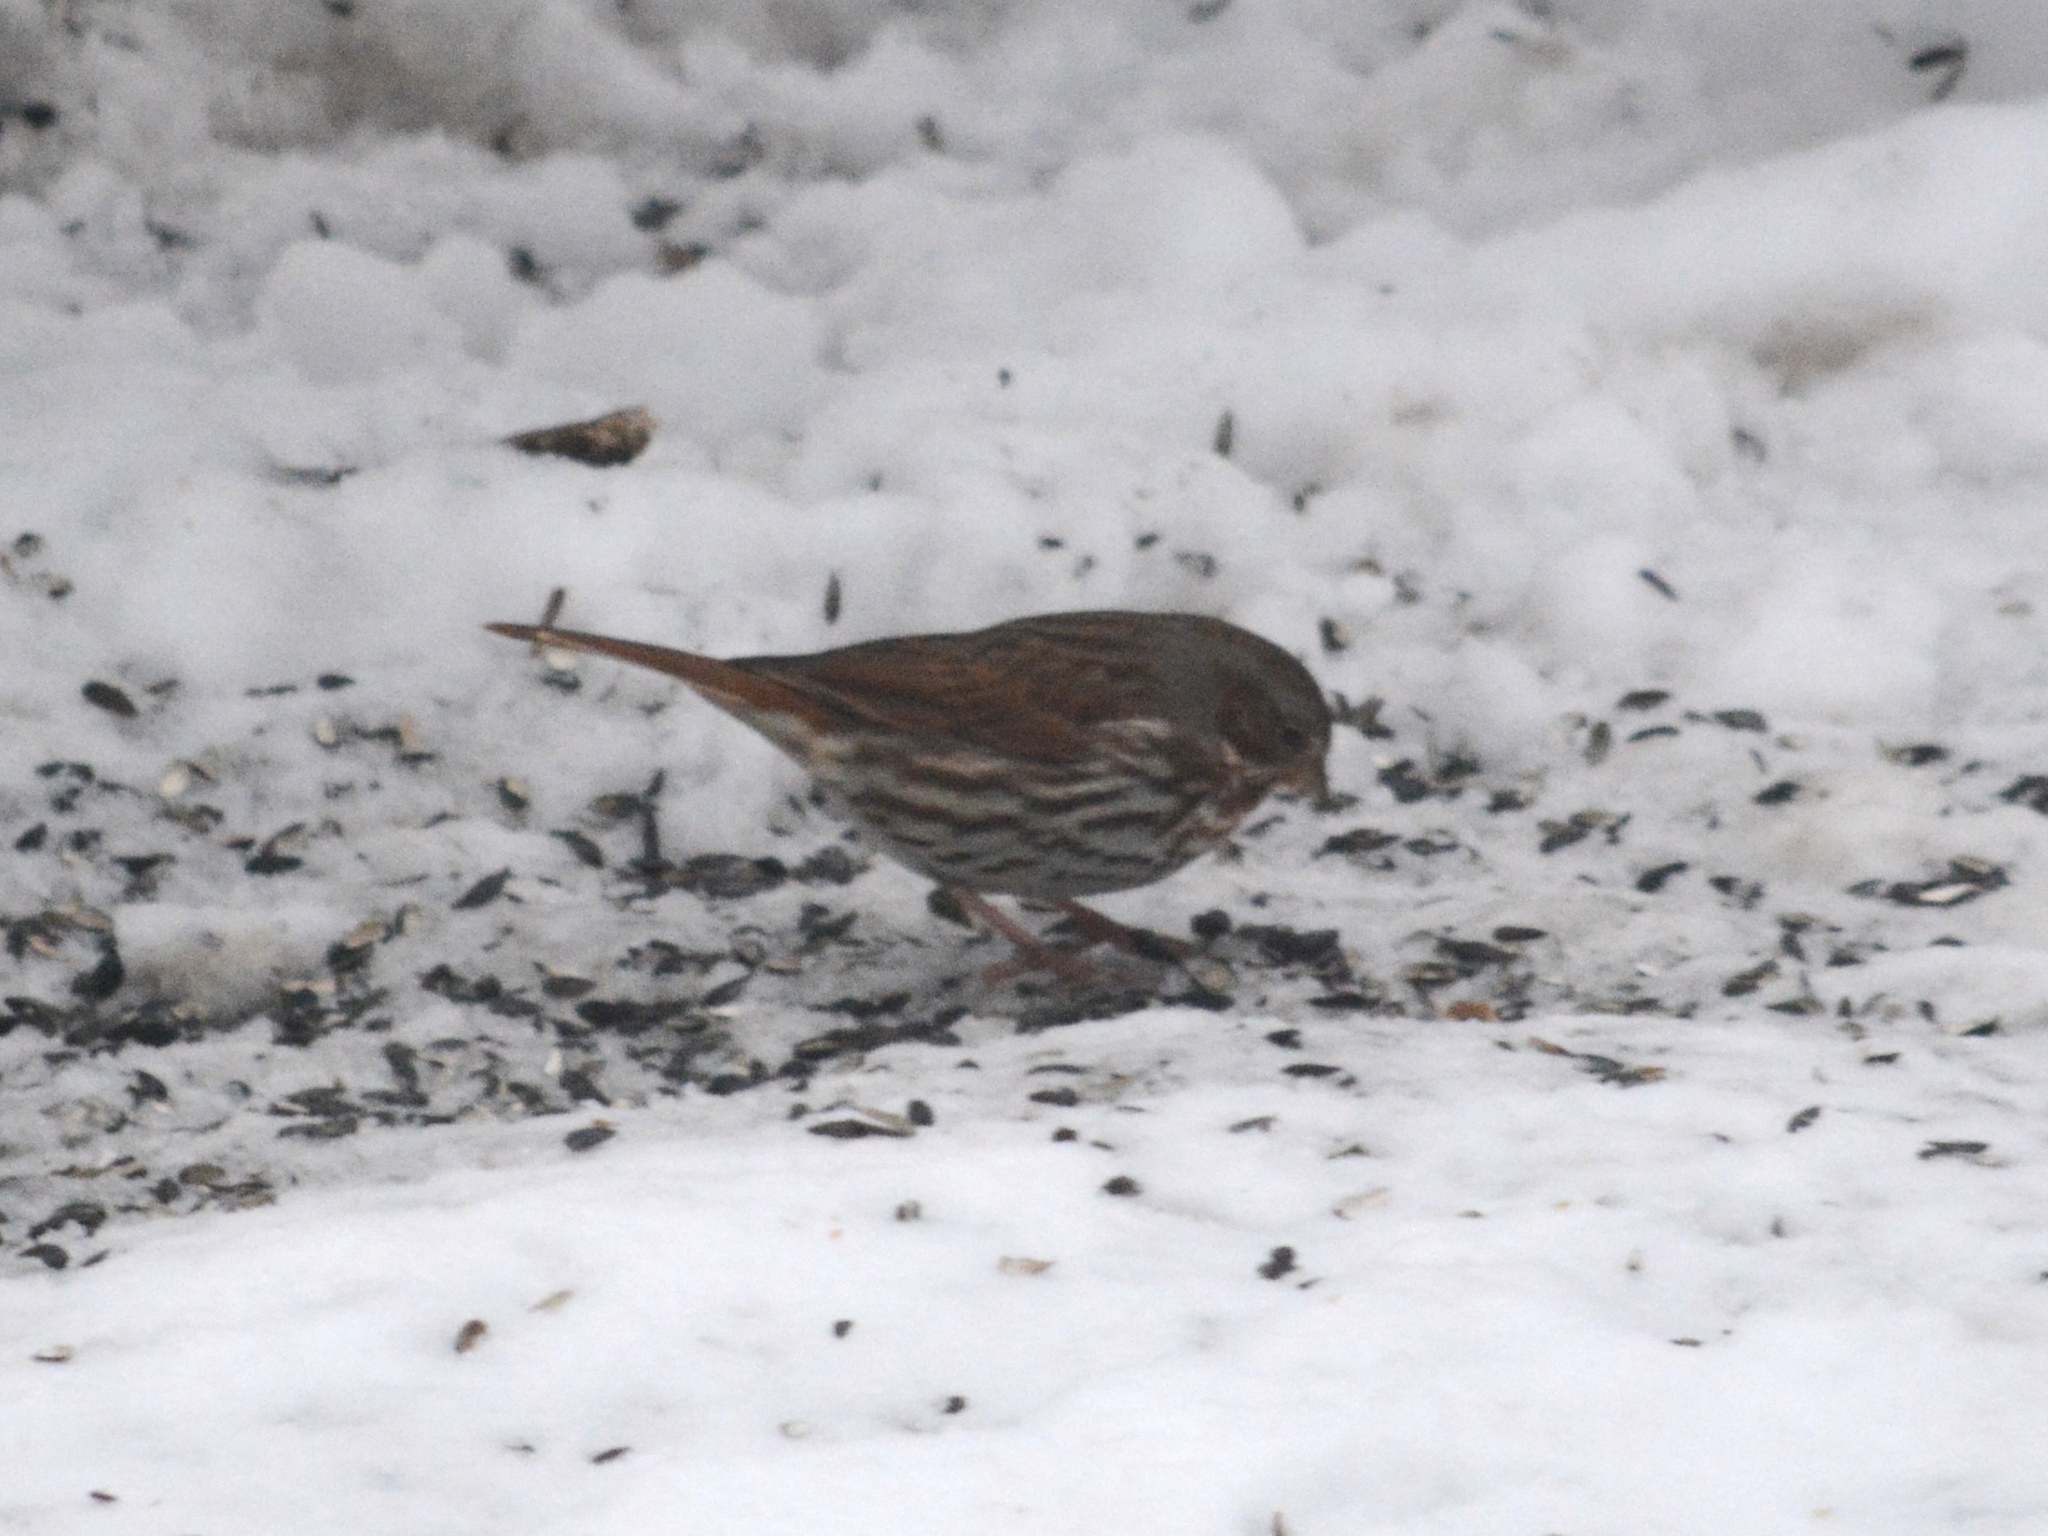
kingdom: Animalia
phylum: Chordata
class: Aves
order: Passeriformes
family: Passerellidae
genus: Passerella
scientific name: Passerella iliaca
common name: Fox sparrow
